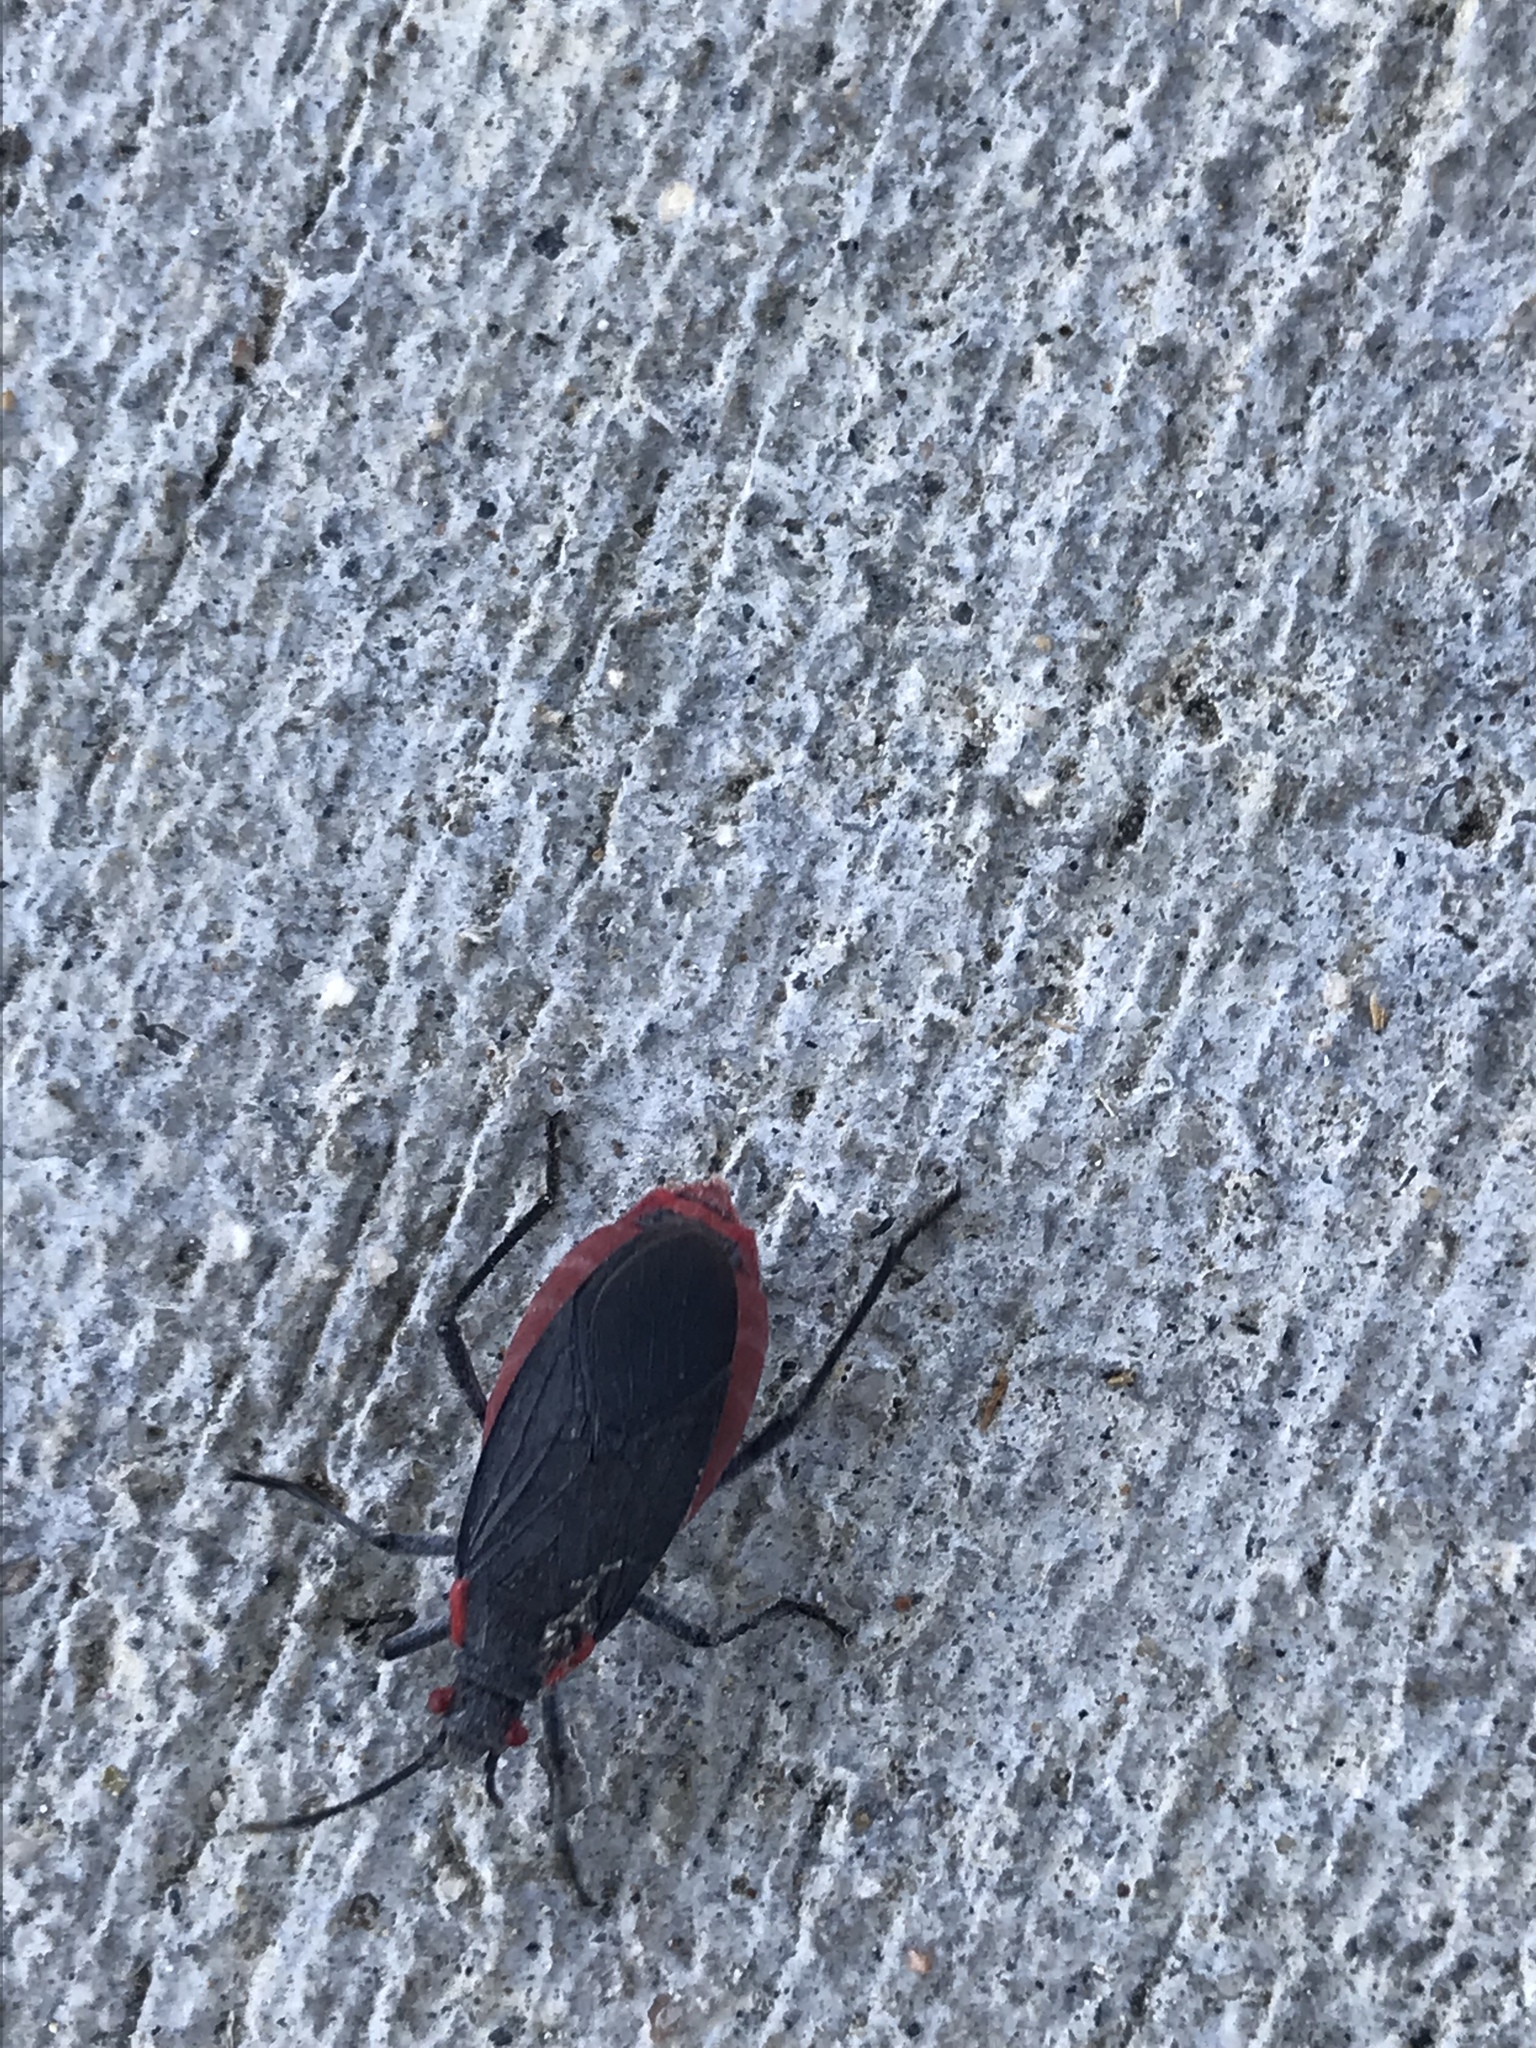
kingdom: Animalia
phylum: Arthropoda
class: Insecta
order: Hemiptera
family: Rhopalidae
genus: Jadera
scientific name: Jadera haematoloma
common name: Red-shouldered bug
